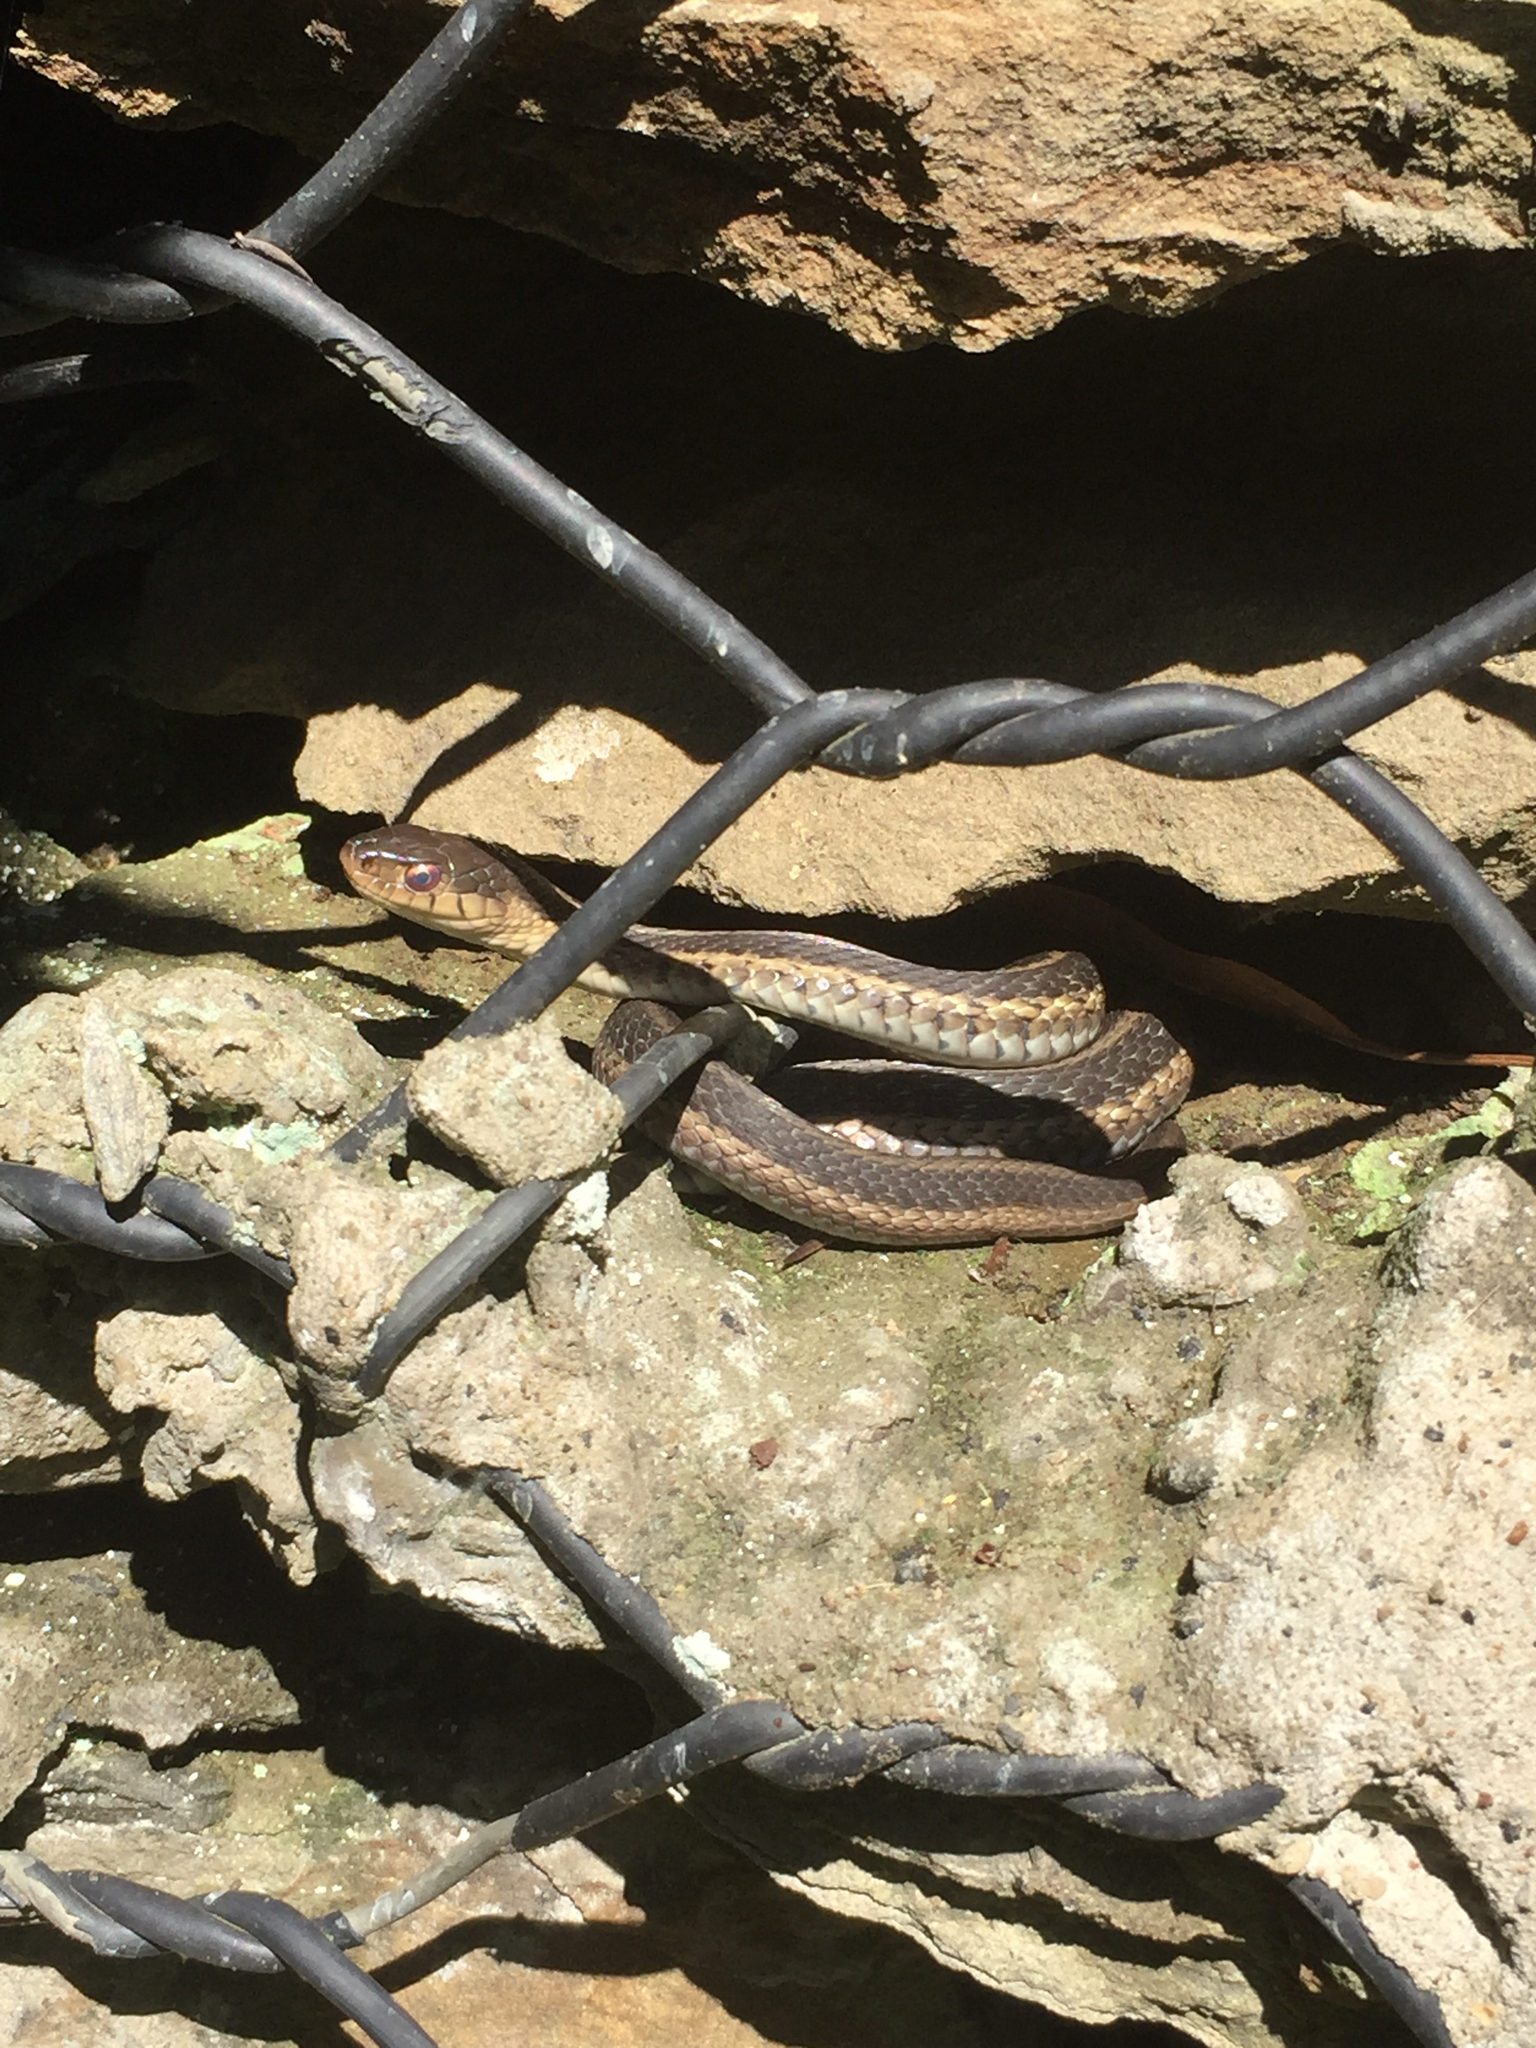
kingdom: Animalia
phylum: Chordata
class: Squamata
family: Colubridae
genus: Thamnophis
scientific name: Thamnophis sirtalis
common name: Common garter snake
